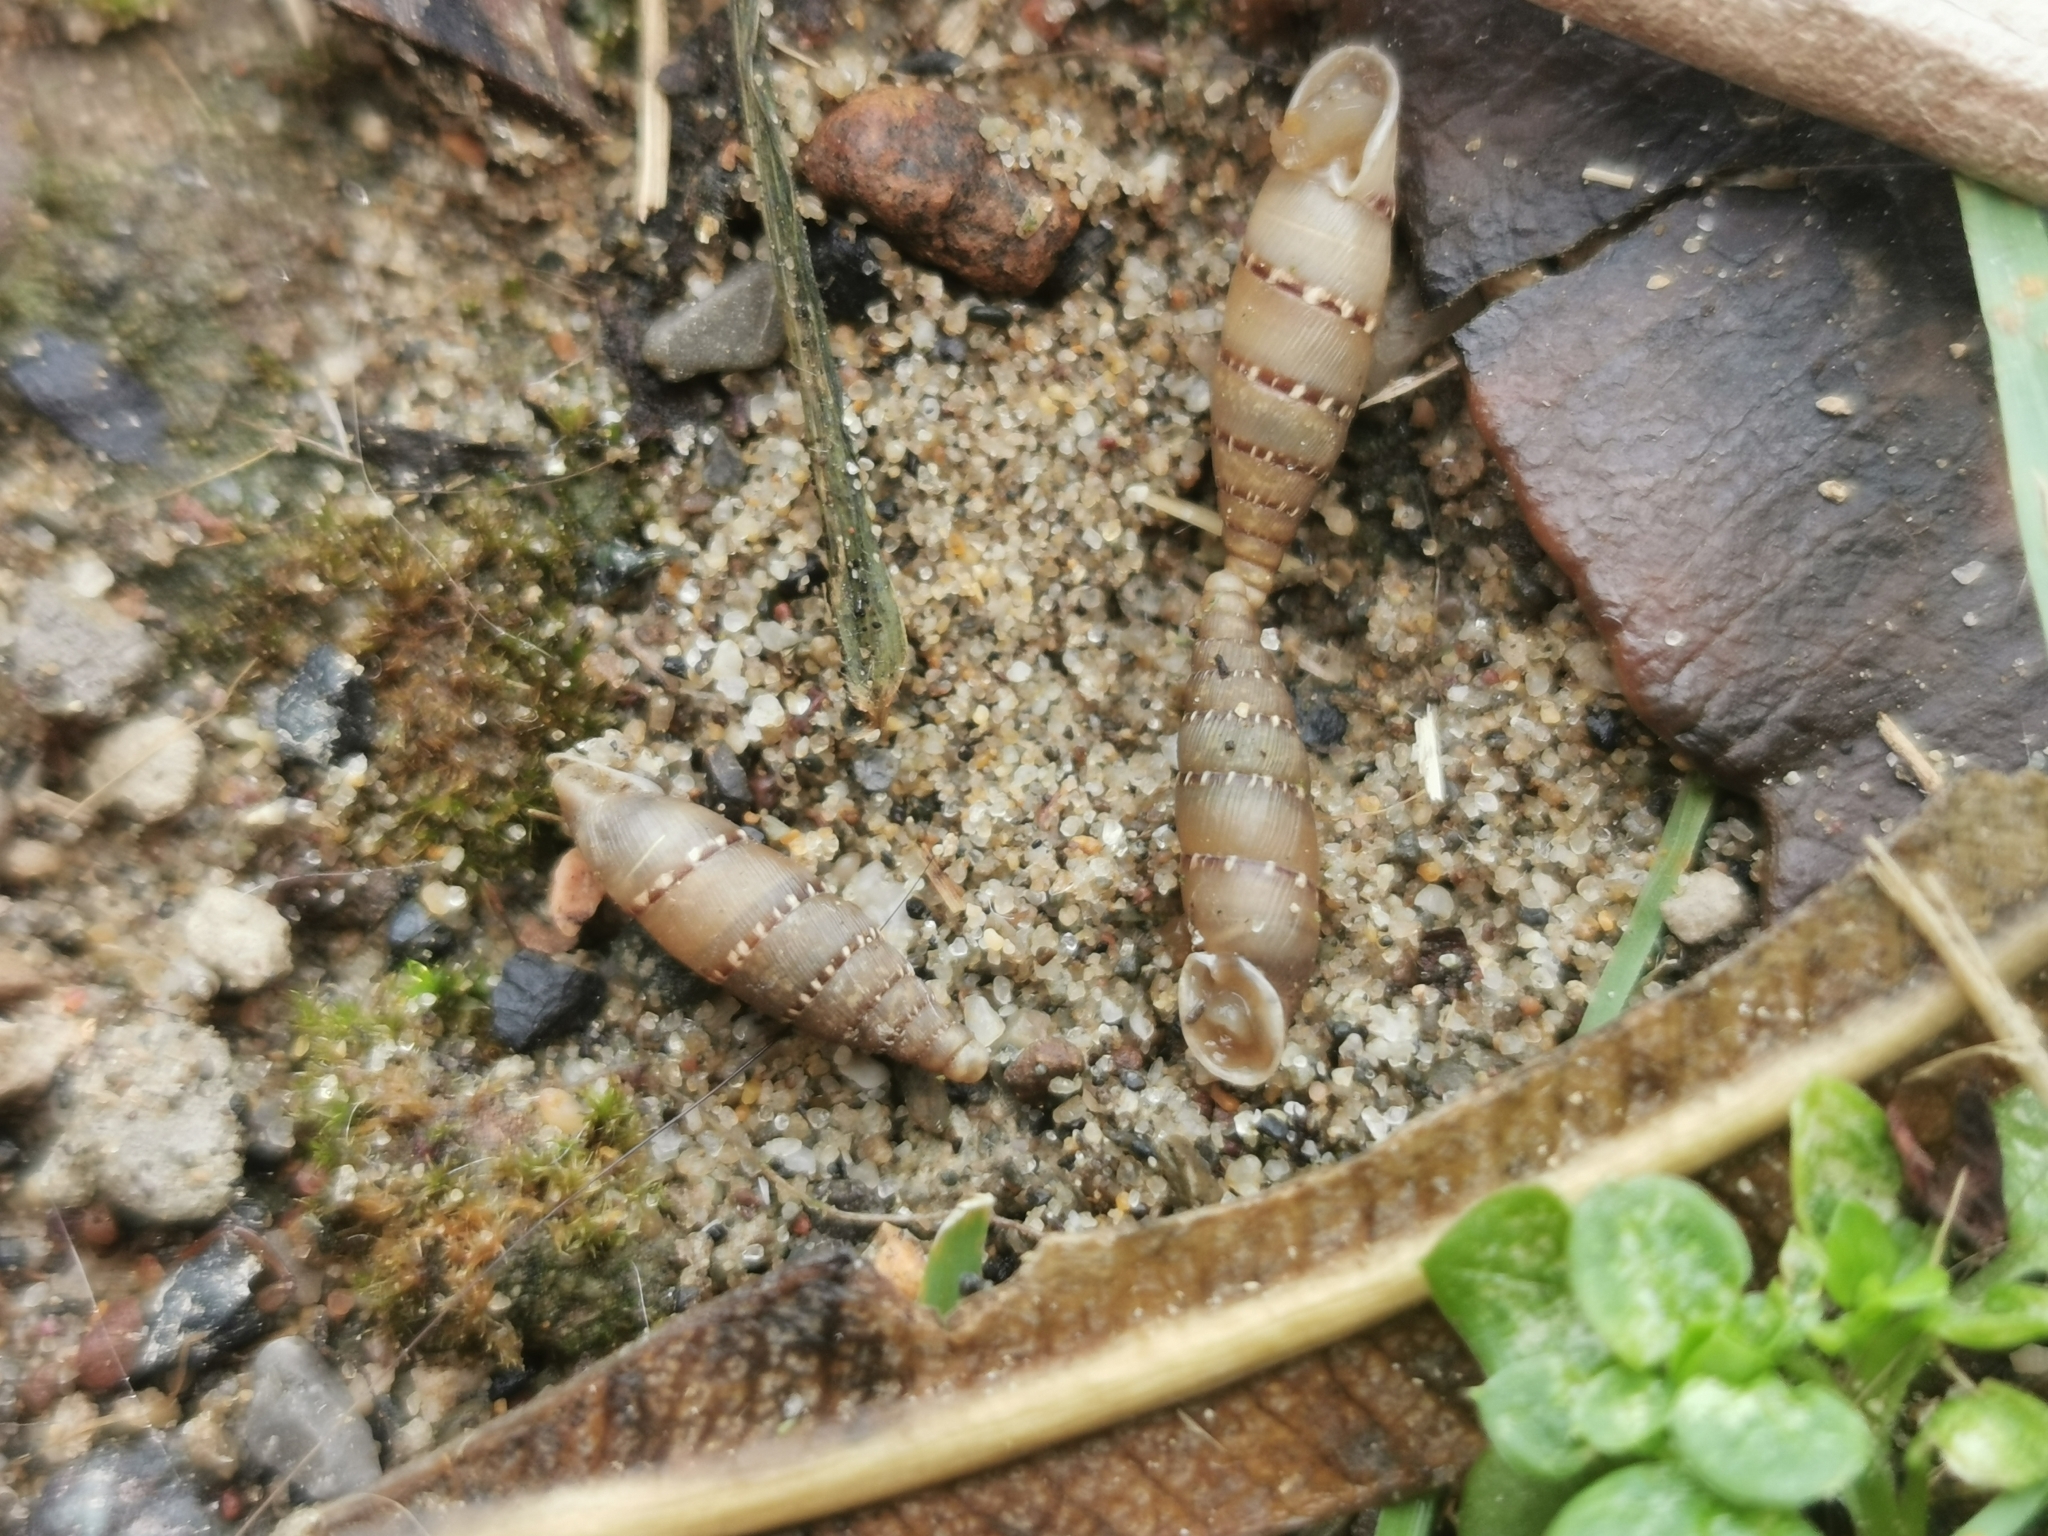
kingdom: Animalia
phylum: Mollusca
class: Gastropoda
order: Stylommatophora
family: Clausiliidae
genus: Papillifera
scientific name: Papillifera papillaris
